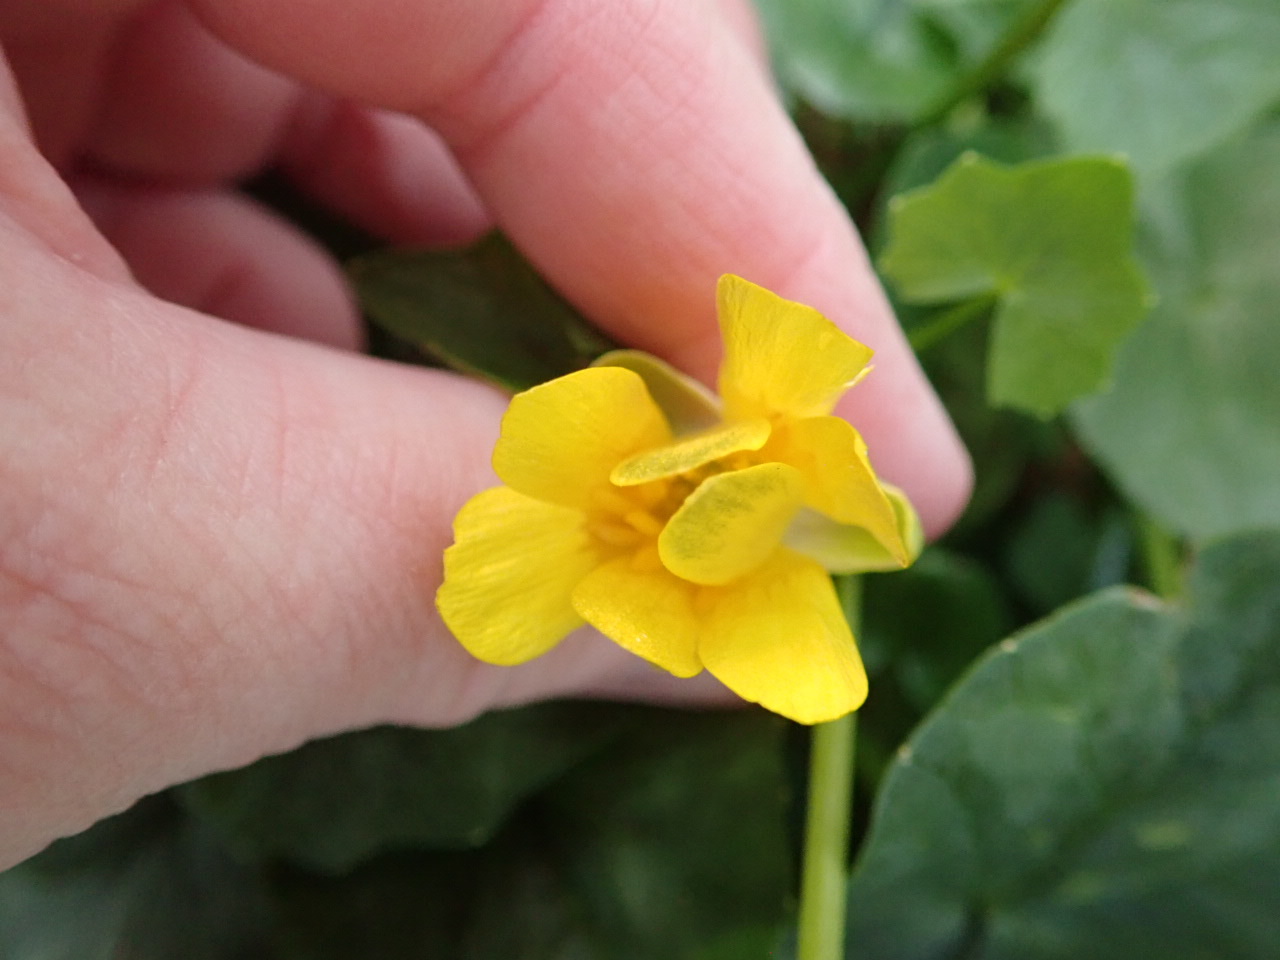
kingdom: Plantae
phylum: Tracheophyta
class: Magnoliopsida
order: Ranunculales
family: Ranunculaceae
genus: Ficaria
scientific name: Ficaria verna
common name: Lesser celandine
